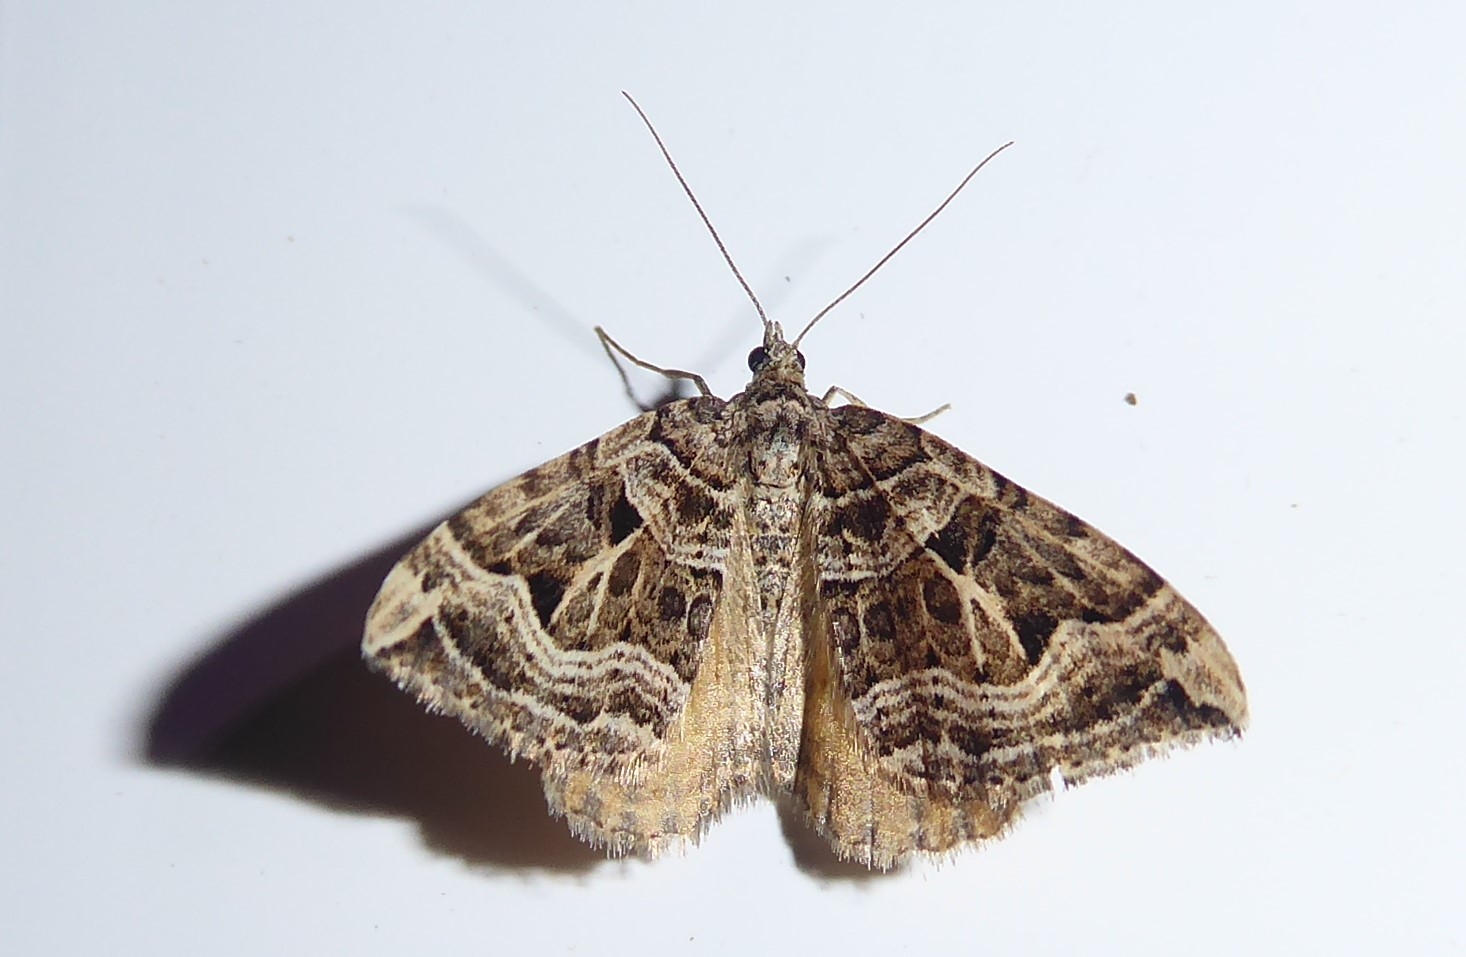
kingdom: Animalia
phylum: Arthropoda
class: Insecta
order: Lepidoptera
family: Geometridae
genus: Xanthorhoe
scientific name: Xanthorhoe semifissata
